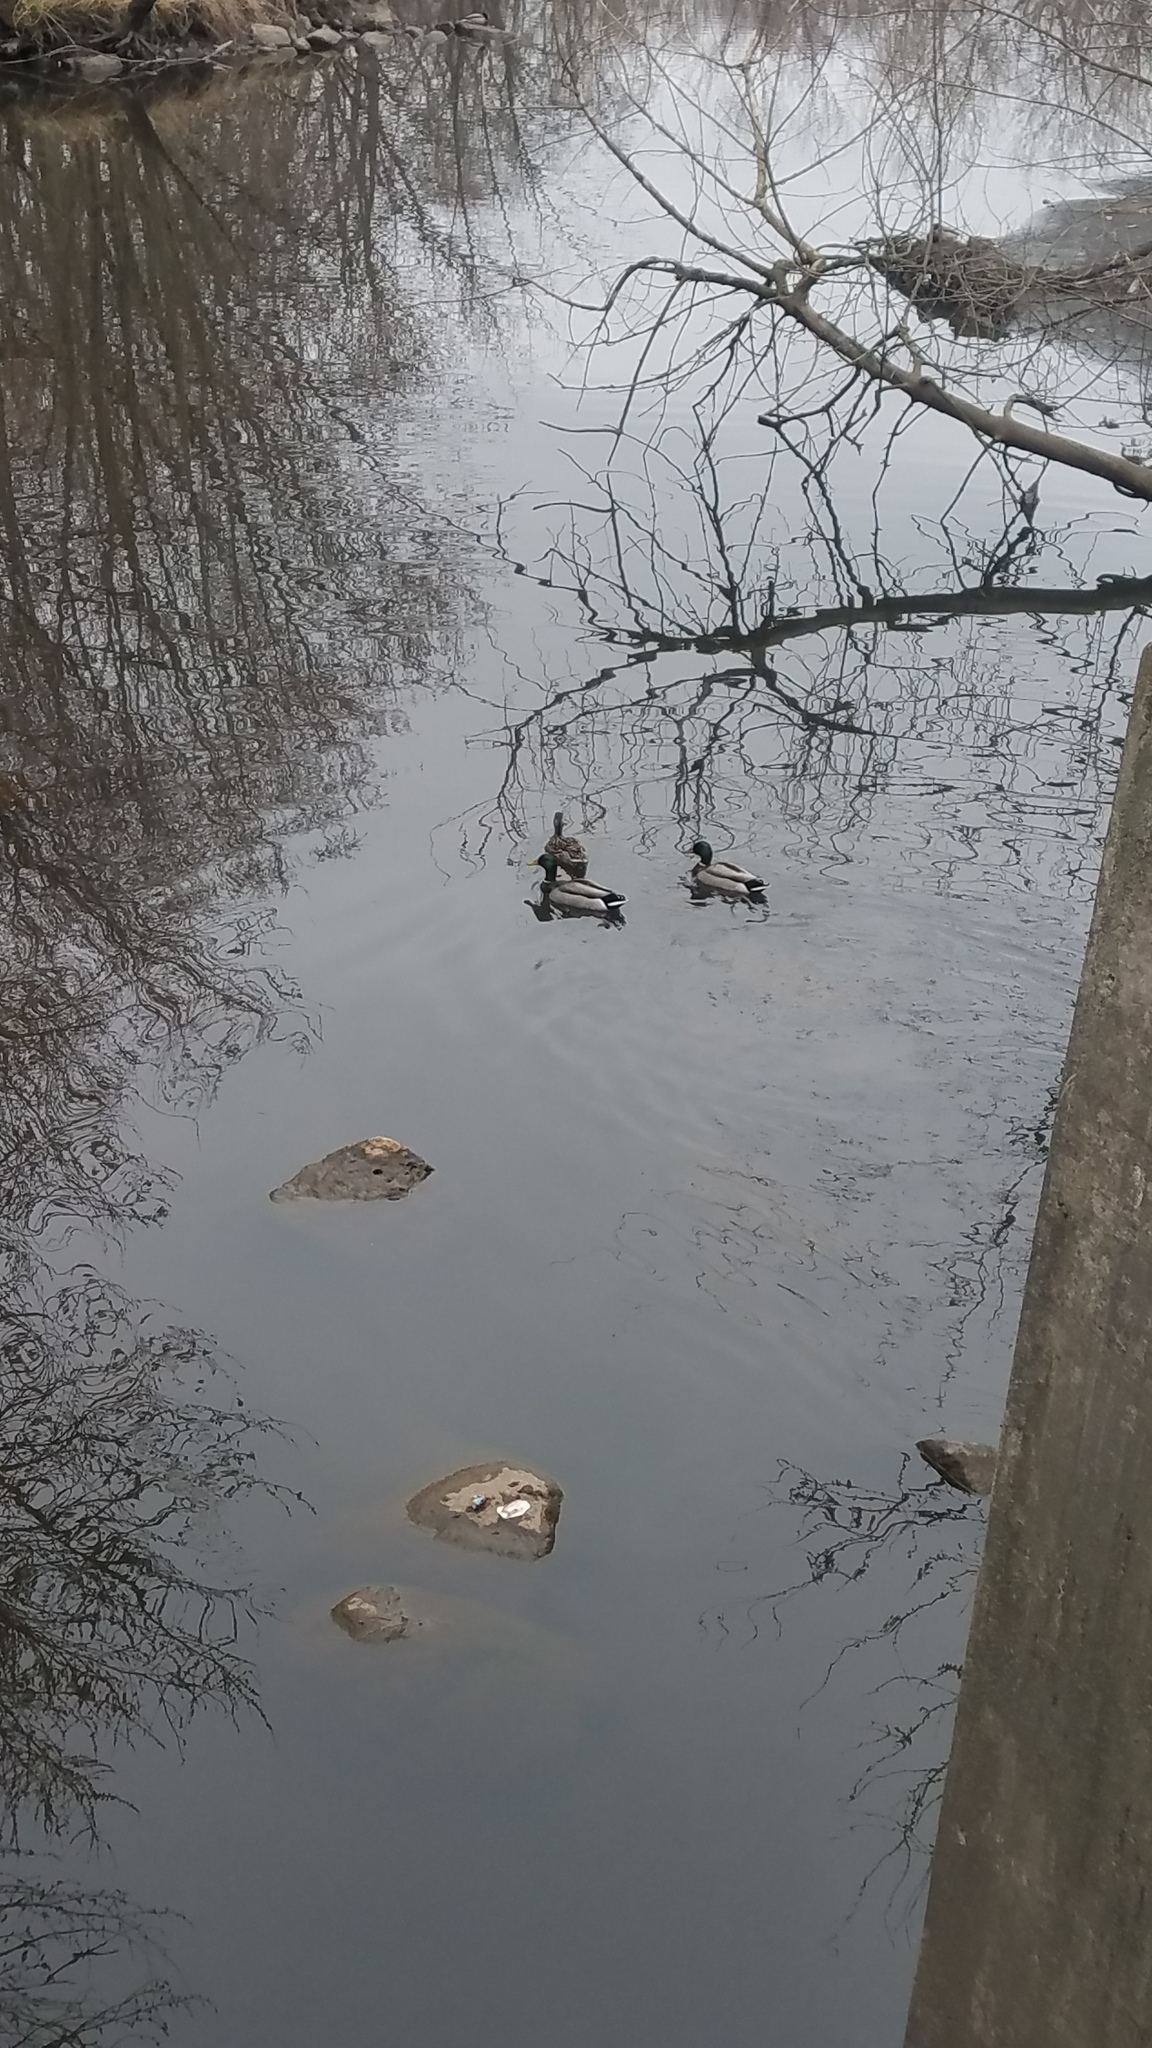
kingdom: Animalia
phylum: Chordata
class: Aves
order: Anseriformes
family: Anatidae
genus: Anas
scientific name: Anas platyrhynchos
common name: Mallard
